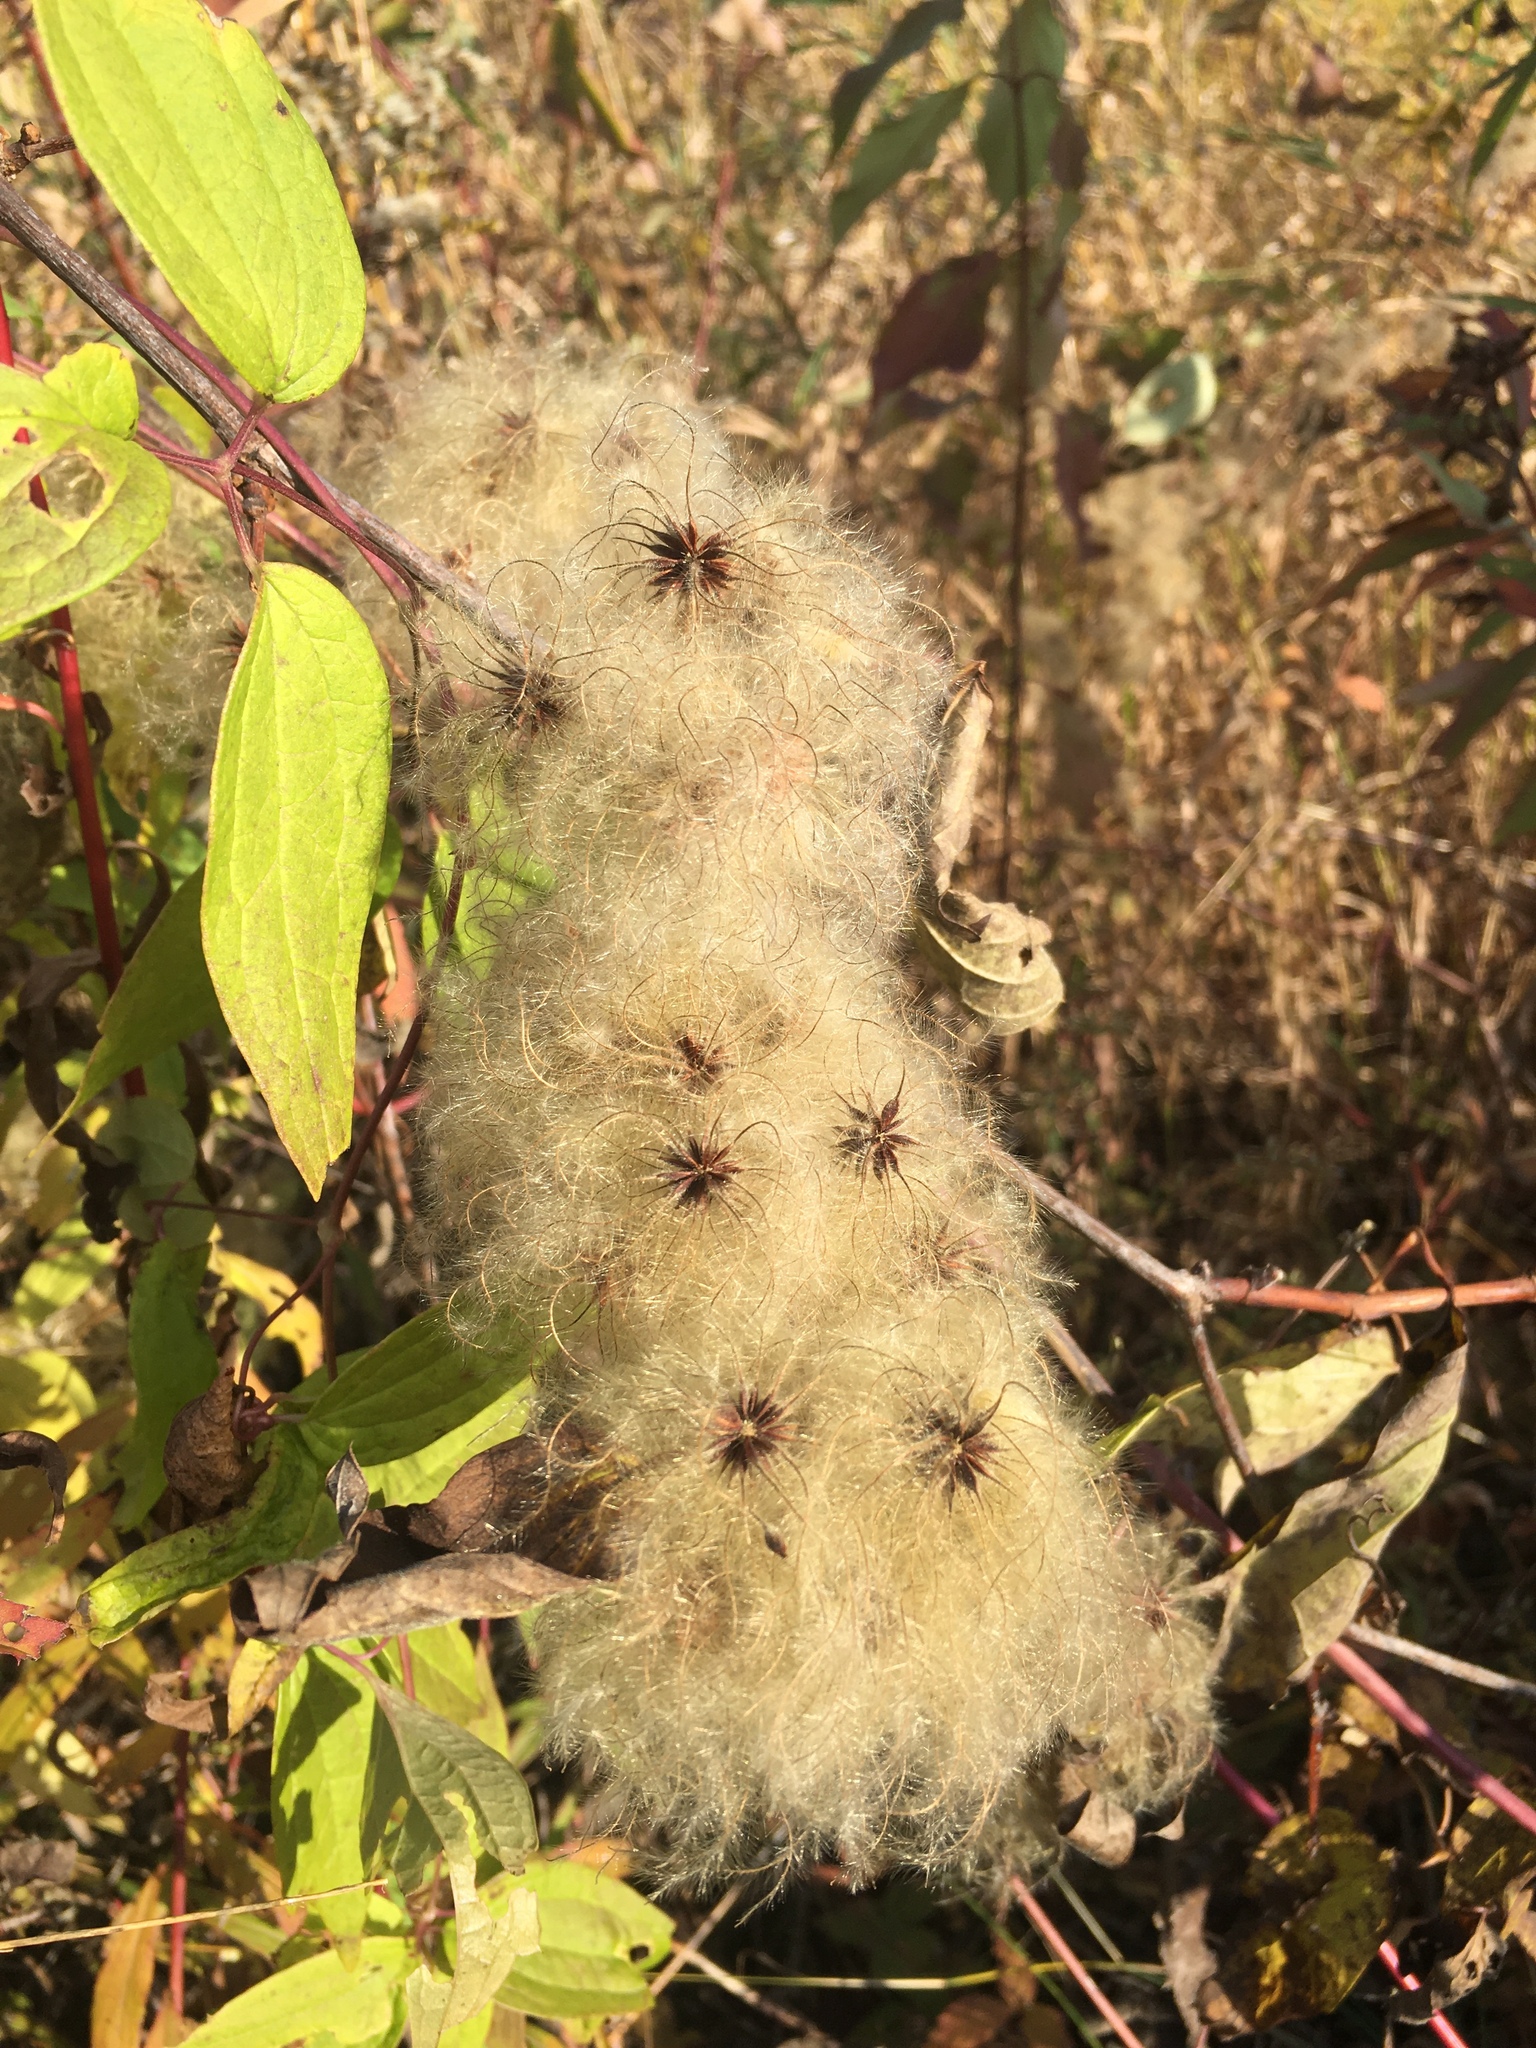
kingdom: Plantae
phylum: Tracheophyta
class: Magnoliopsida
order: Ranunculales
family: Ranunculaceae
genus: Clematis
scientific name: Clematis virginiana
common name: Virgin's-bower
